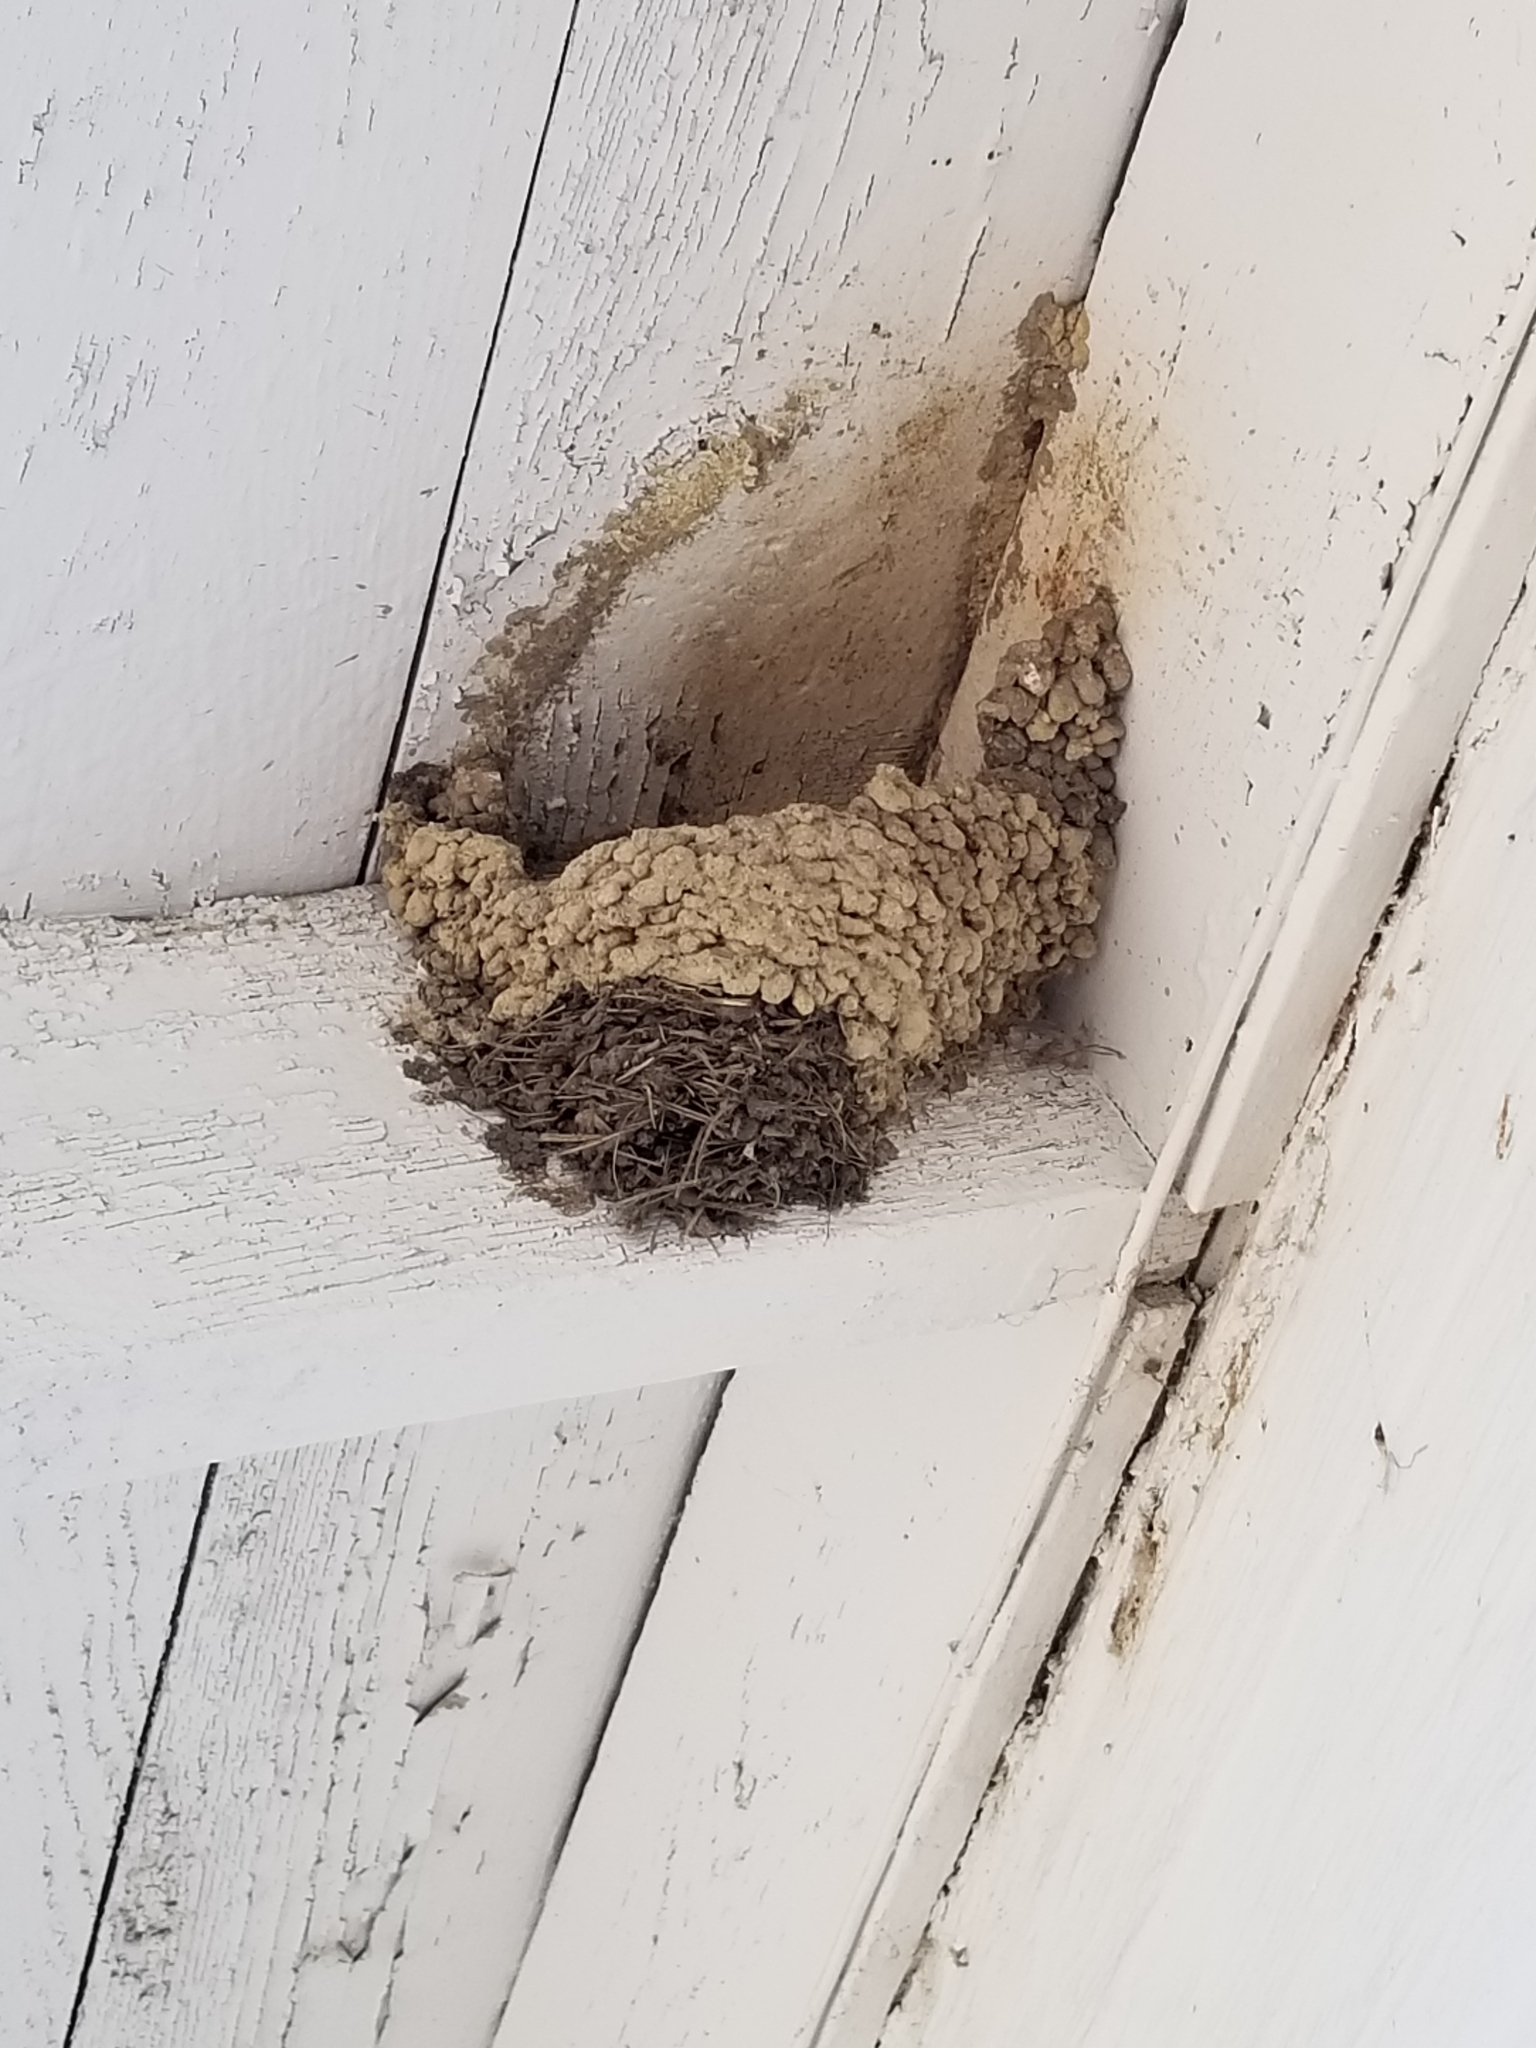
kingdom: Animalia
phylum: Chordata
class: Aves
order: Passeriformes
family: Hirundinidae
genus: Hirundo
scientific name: Hirundo rustica
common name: Barn swallow
